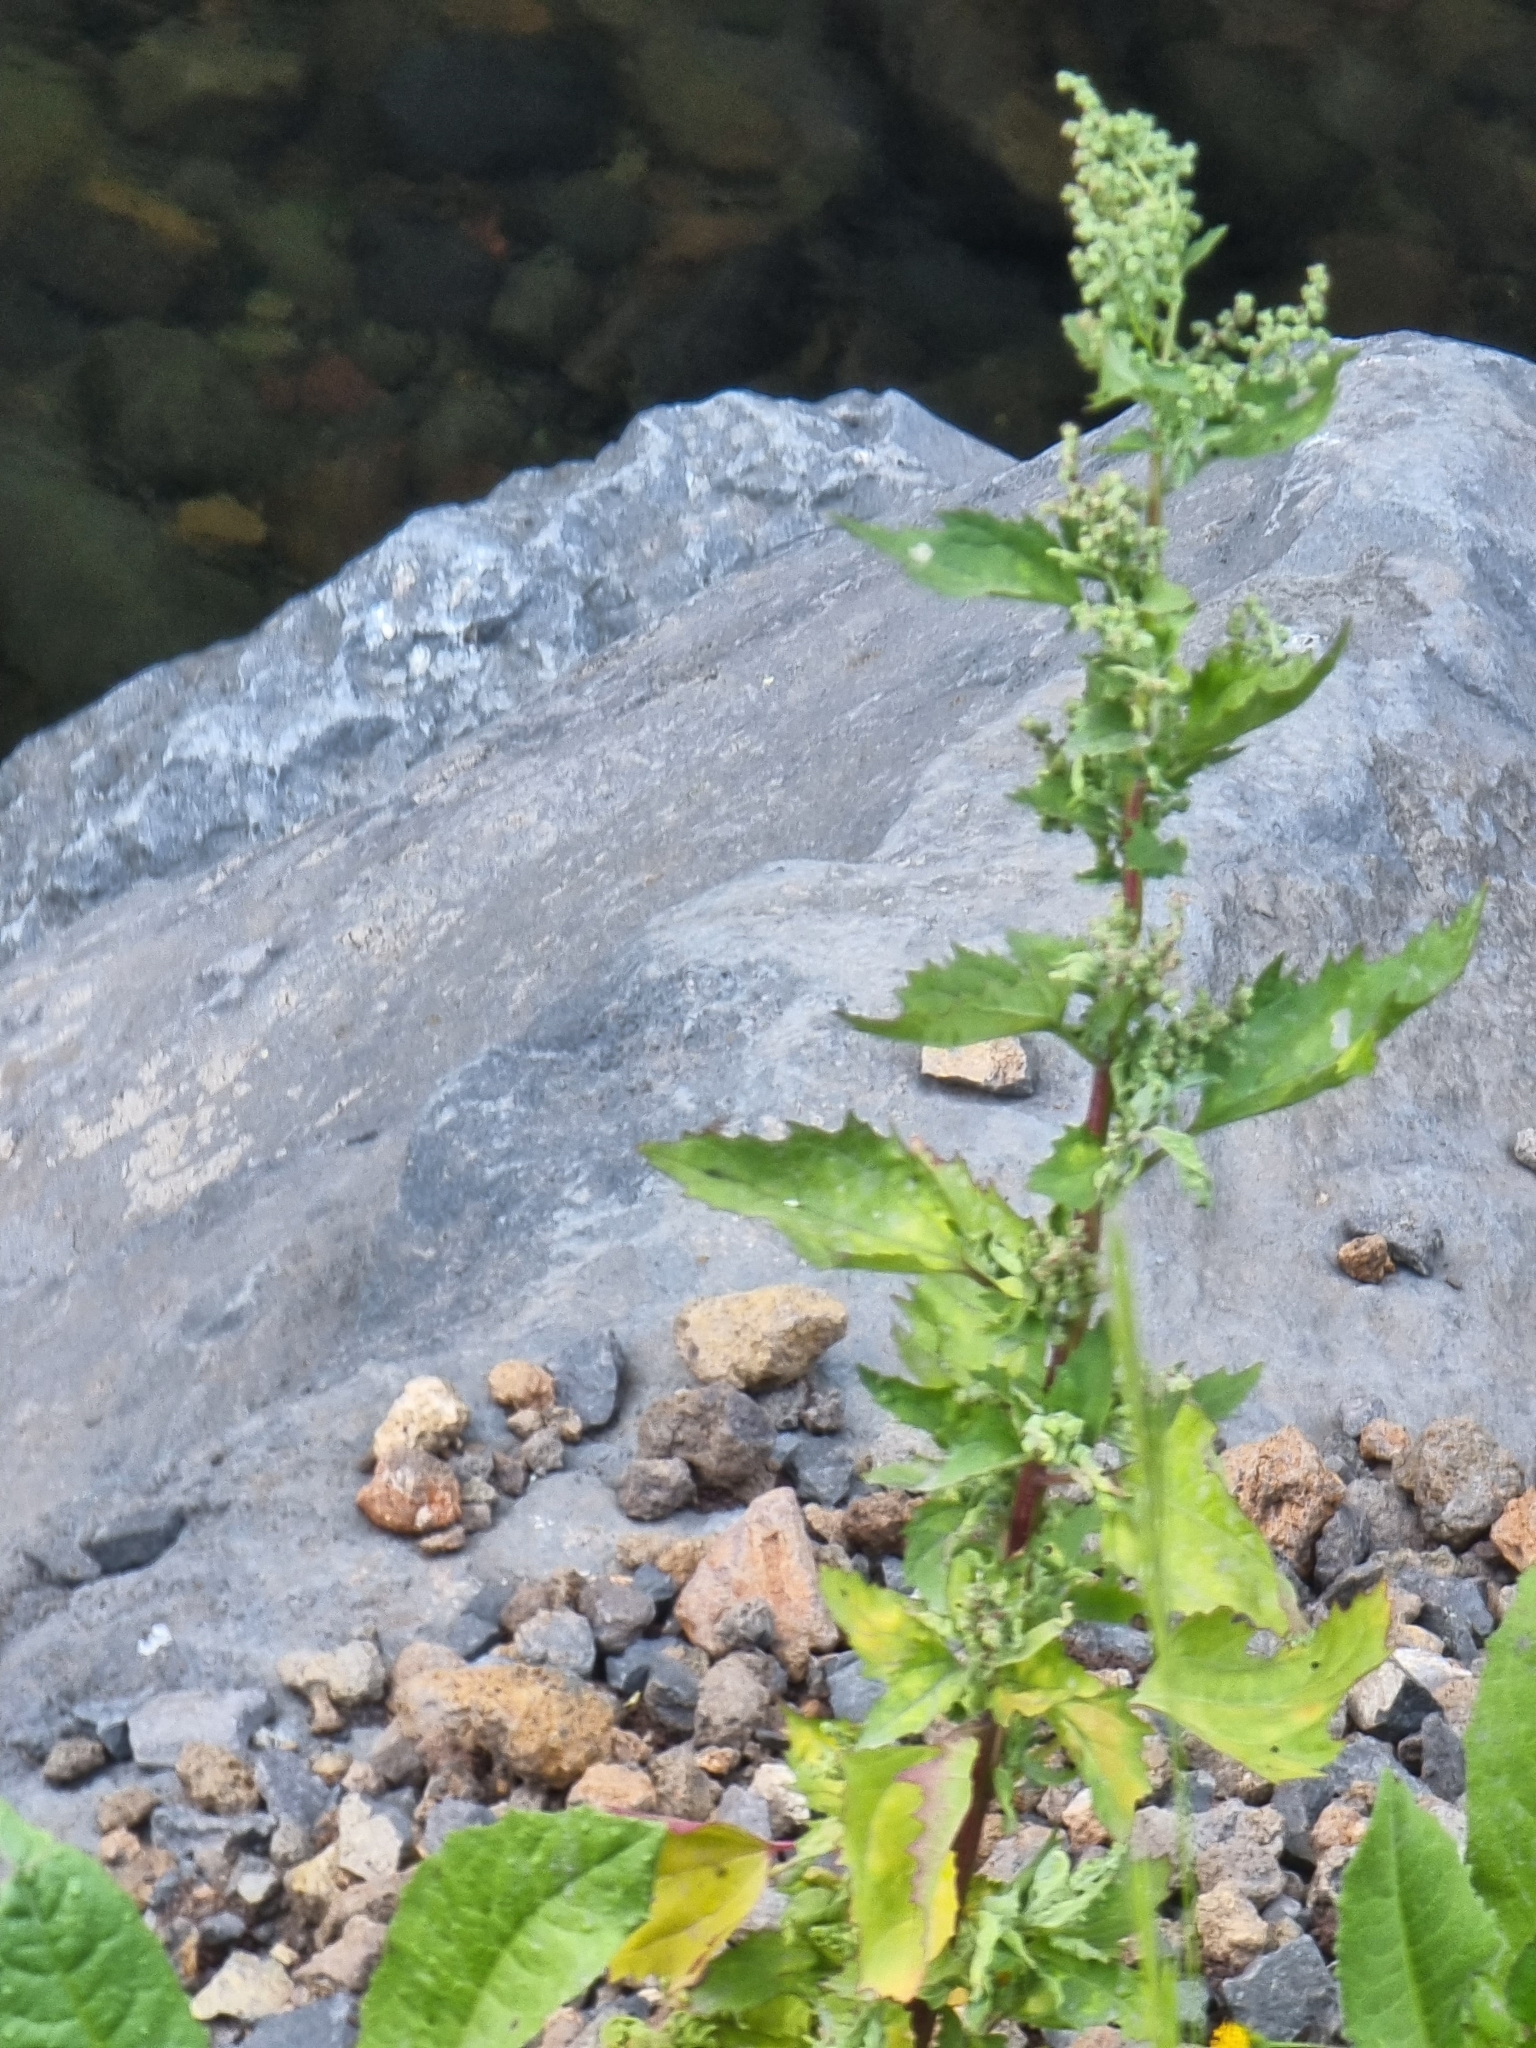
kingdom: Plantae
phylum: Tracheophyta
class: Magnoliopsida
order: Caryophyllales
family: Amaranthaceae
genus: Chenopodiastrum
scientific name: Chenopodiastrum murale
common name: Sowbane
